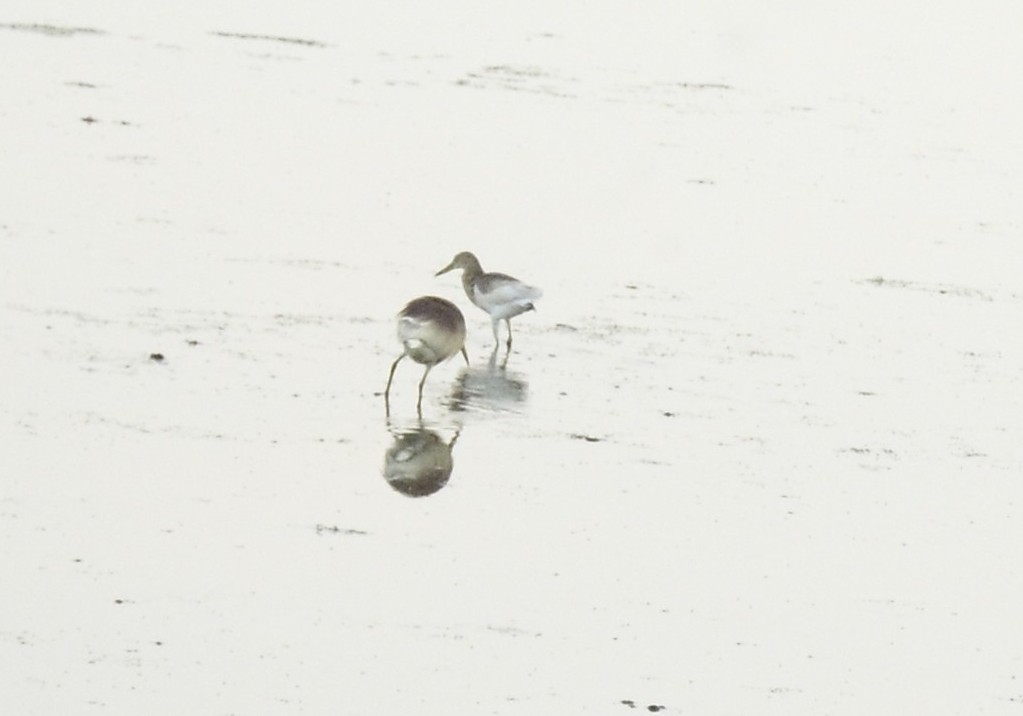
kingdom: Animalia
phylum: Chordata
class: Aves
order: Pelecaniformes
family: Ardeidae
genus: Ardeola
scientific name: Ardeola grayii
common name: Indian pond heron
